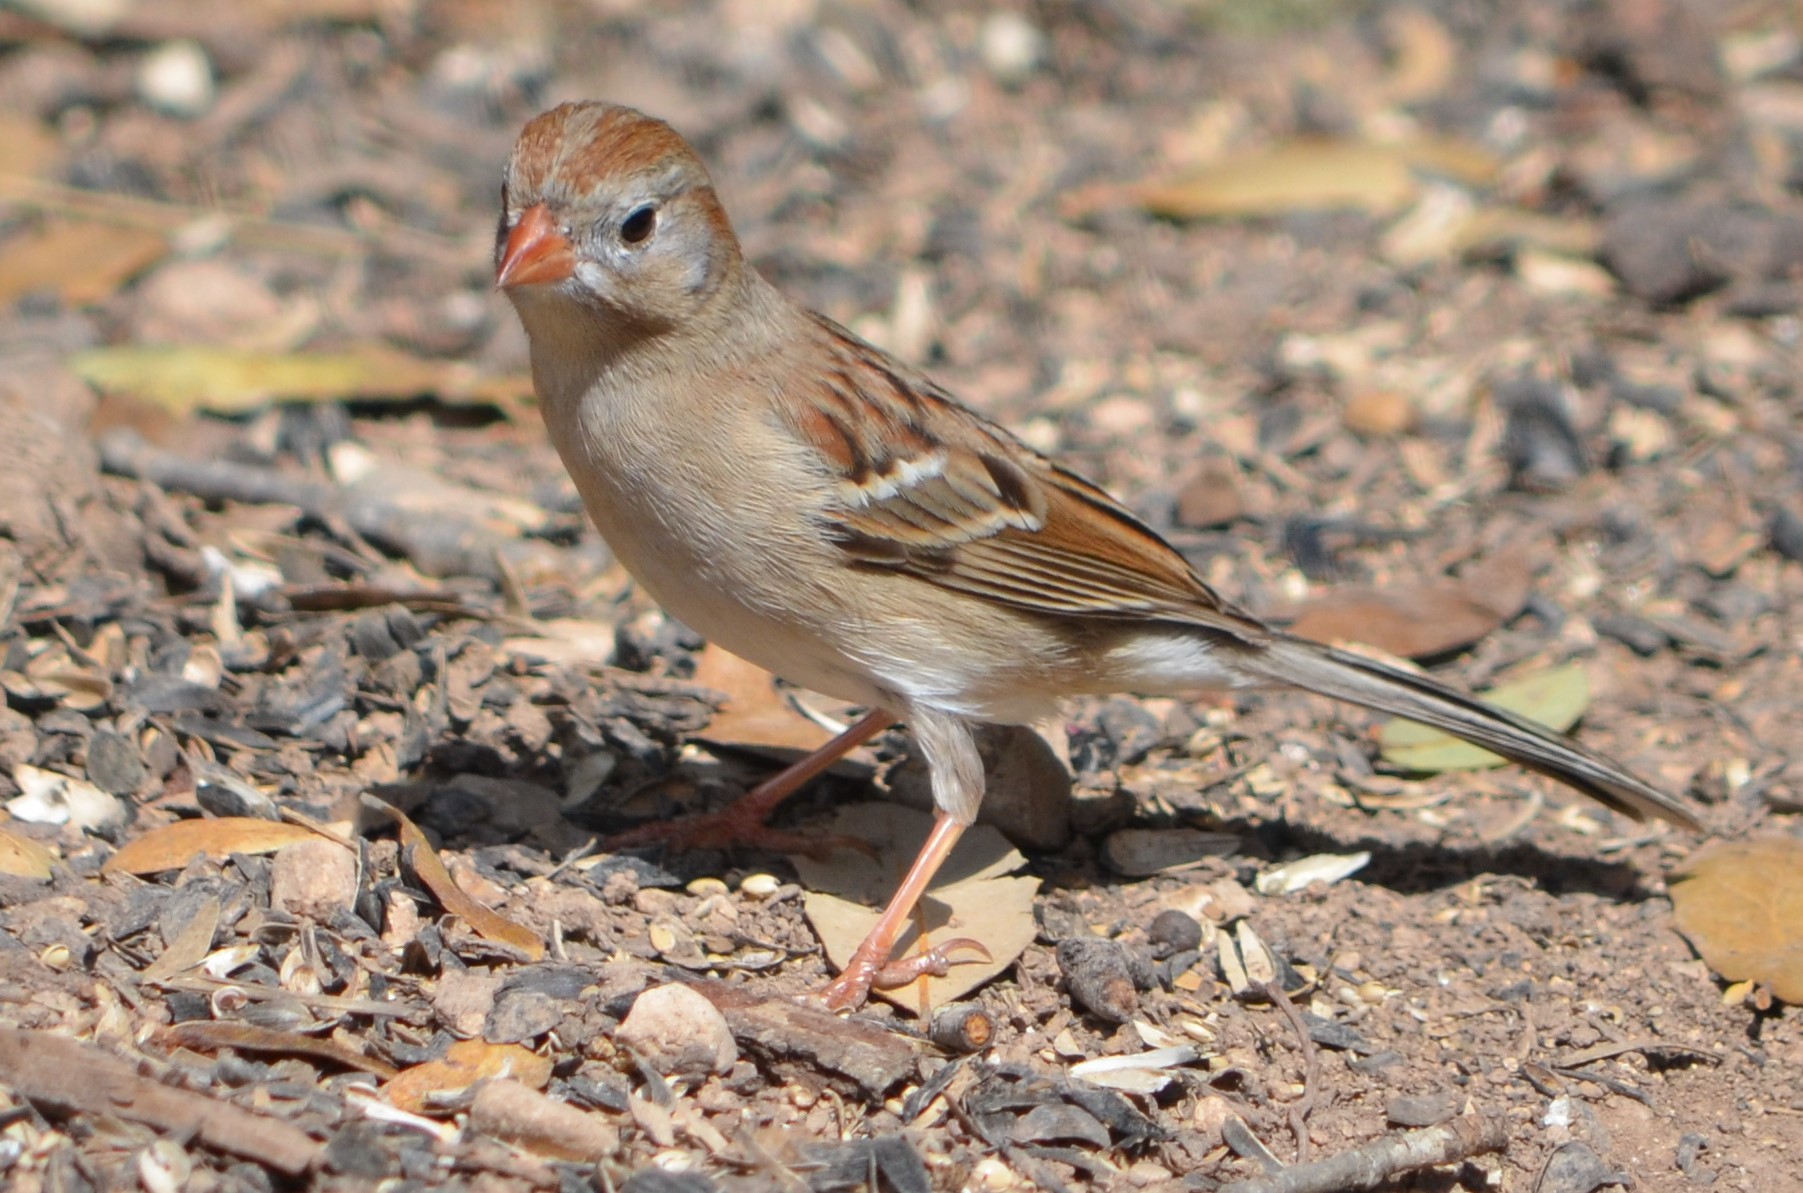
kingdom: Animalia
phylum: Chordata
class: Aves
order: Passeriformes
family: Passerellidae
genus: Spizella
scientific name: Spizella pusilla
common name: Field sparrow
